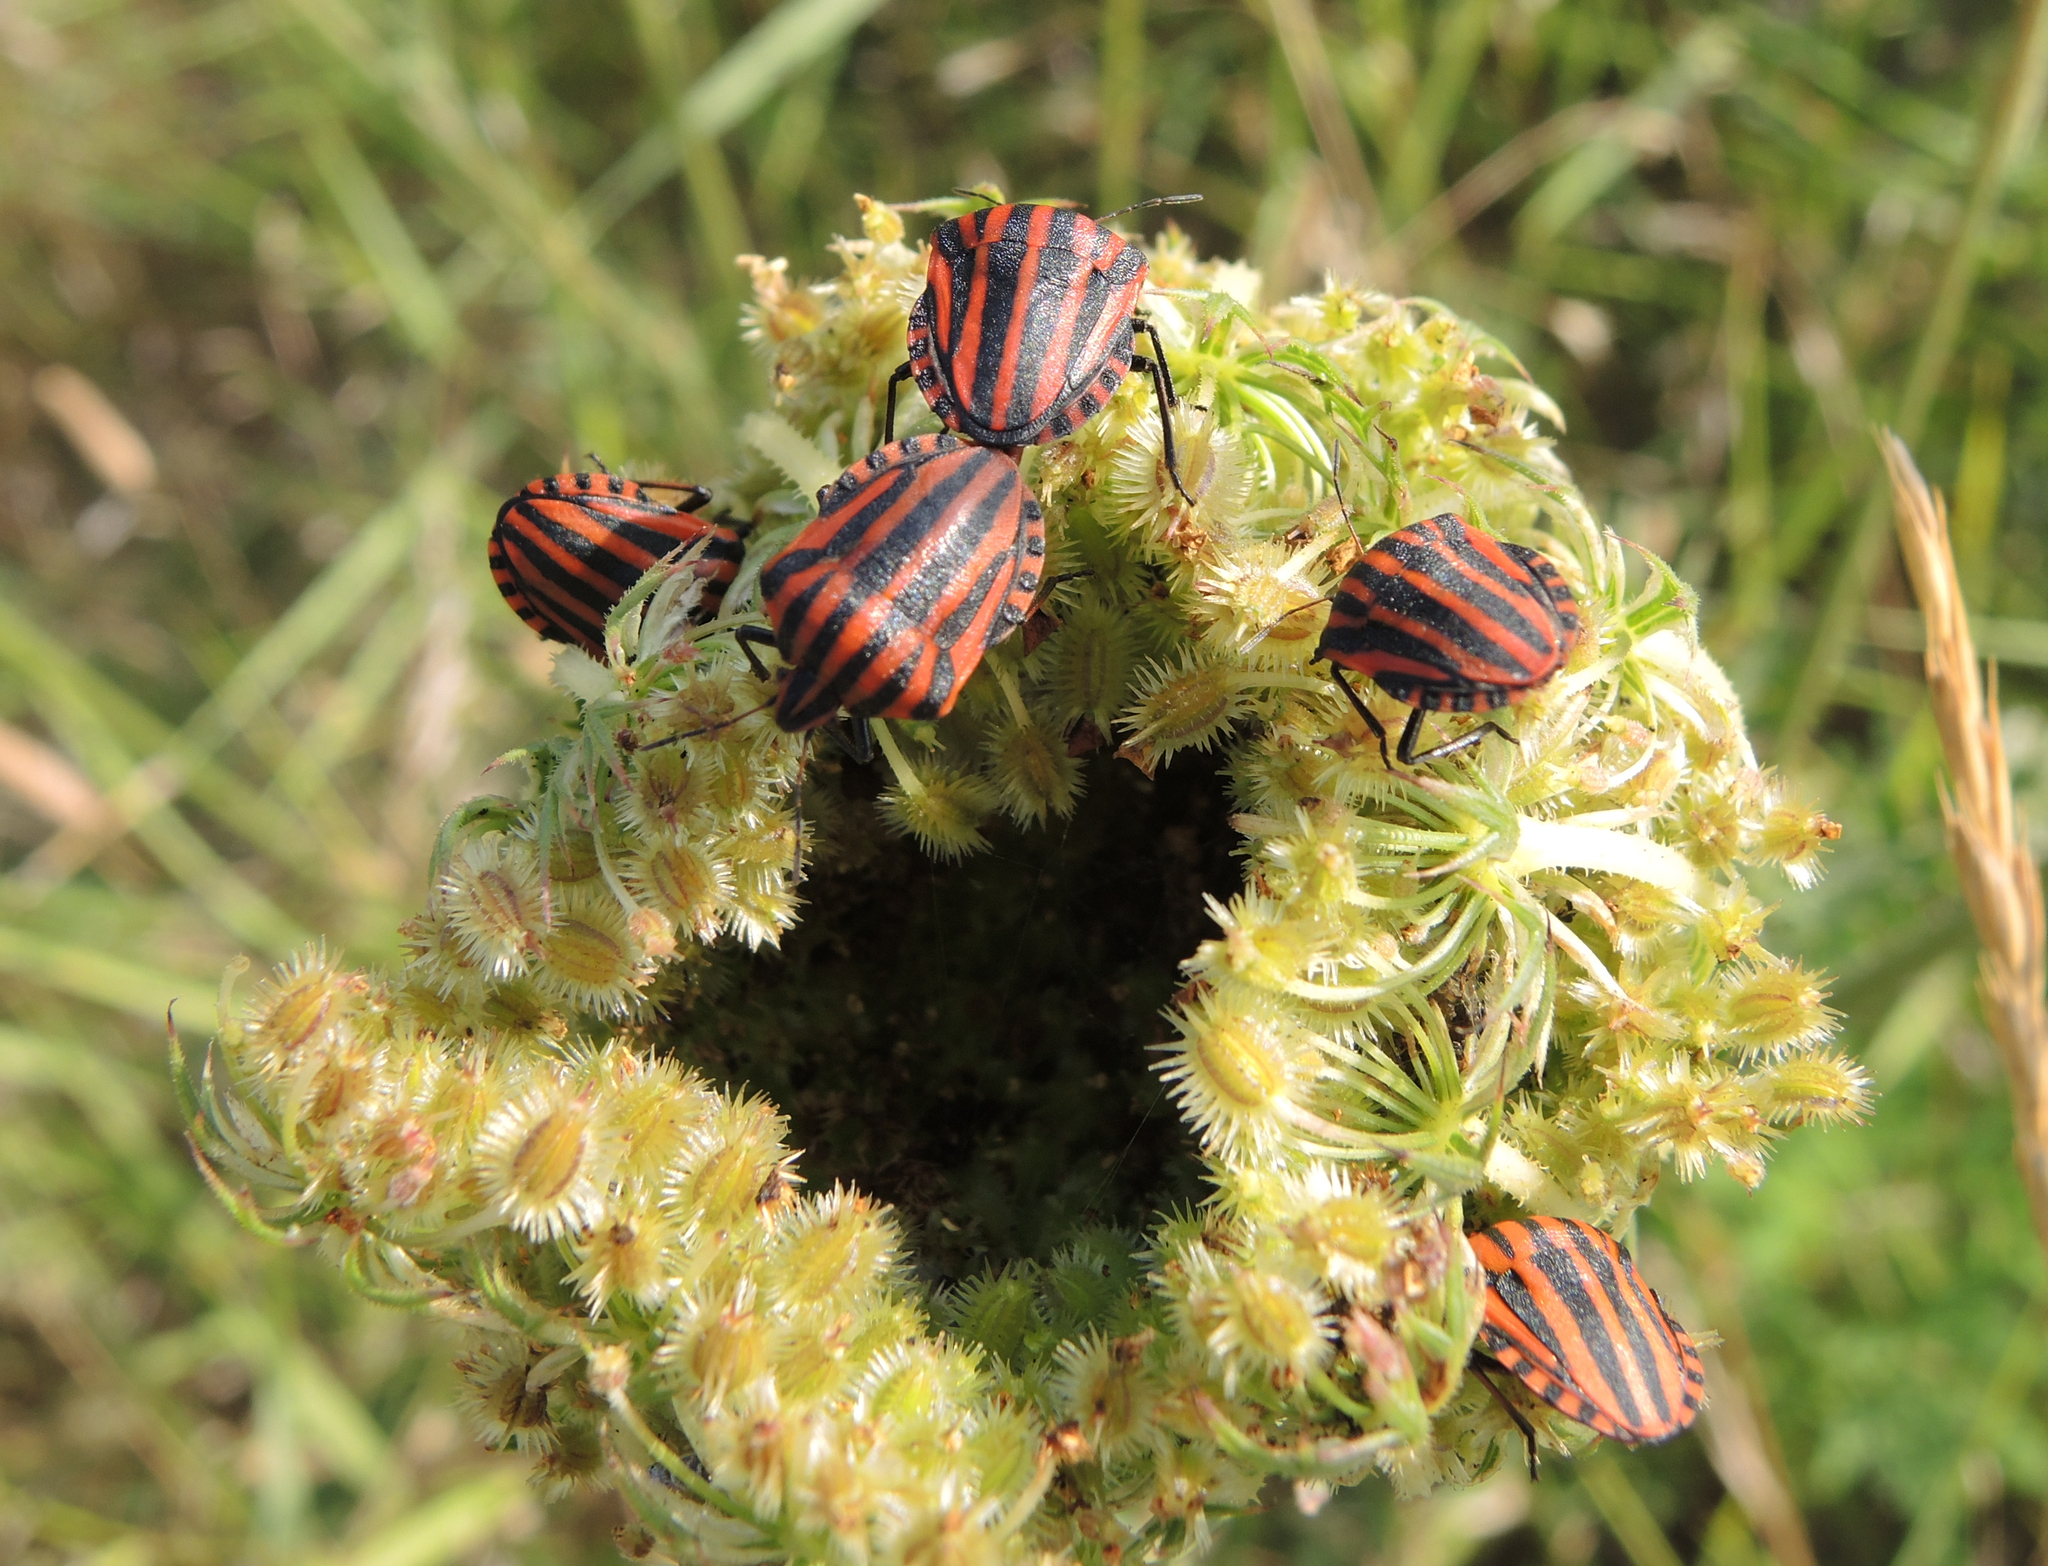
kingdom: Animalia
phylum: Arthropoda
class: Insecta
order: Hemiptera
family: Pentatomidae
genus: Graphosoma
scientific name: Graphosoma italicum
